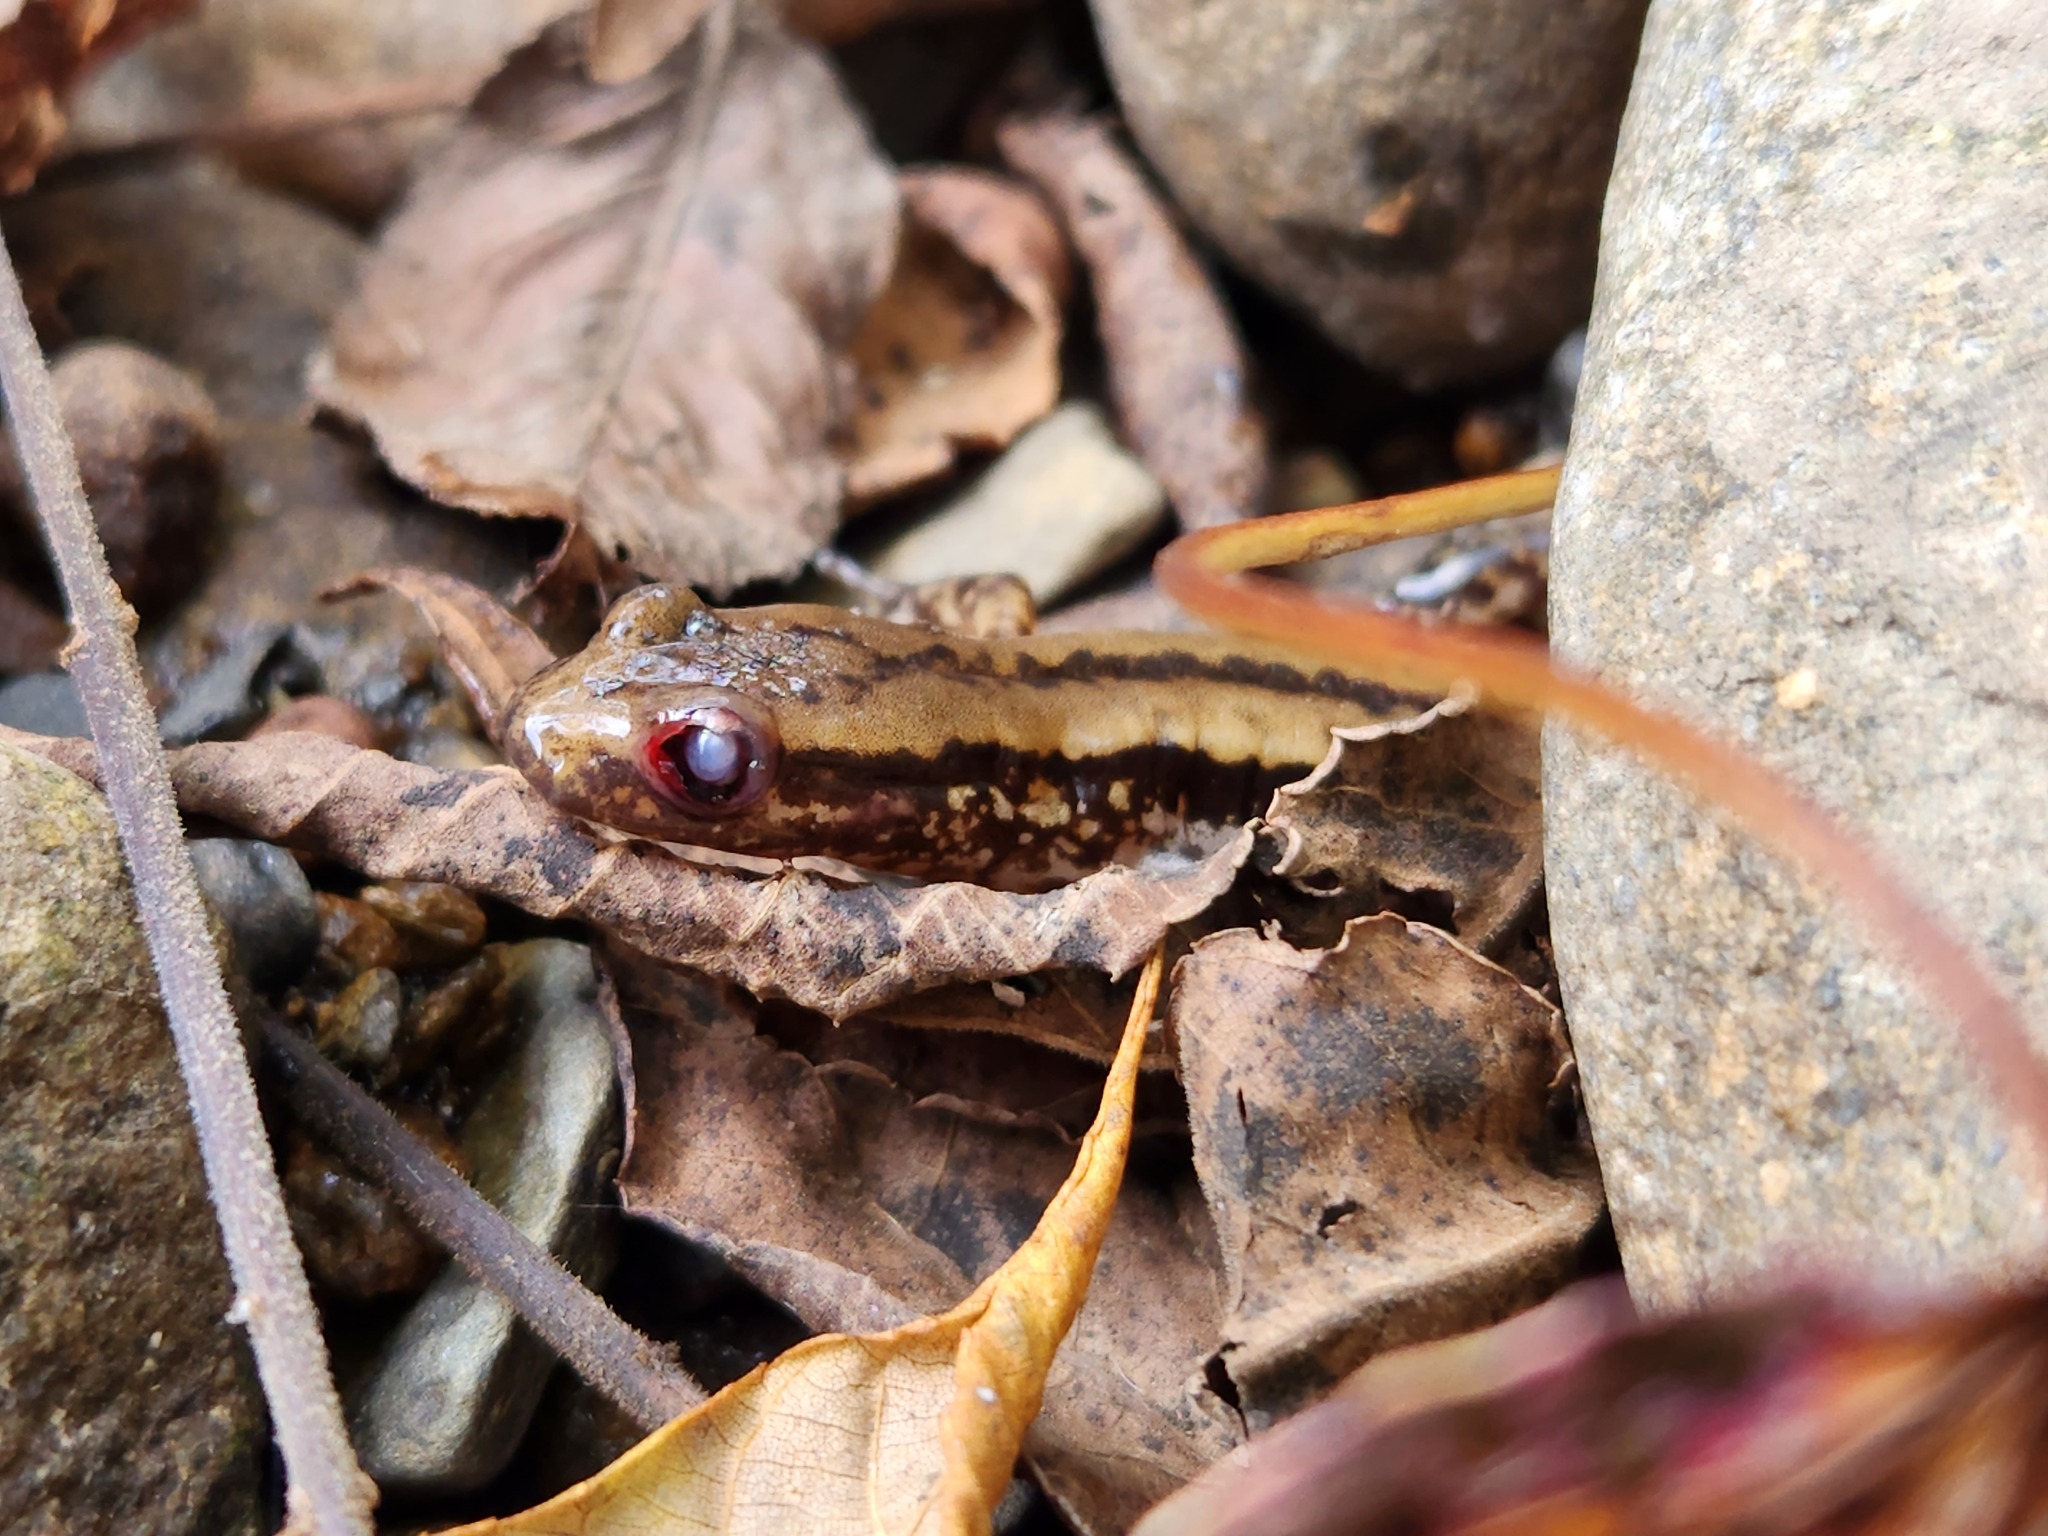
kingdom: Animalia
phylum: Chordata
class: Amphibia
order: Caudata
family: Plethodontidae
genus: Eurycea
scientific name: Eurycea guttolineata
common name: Three-lined salamander
